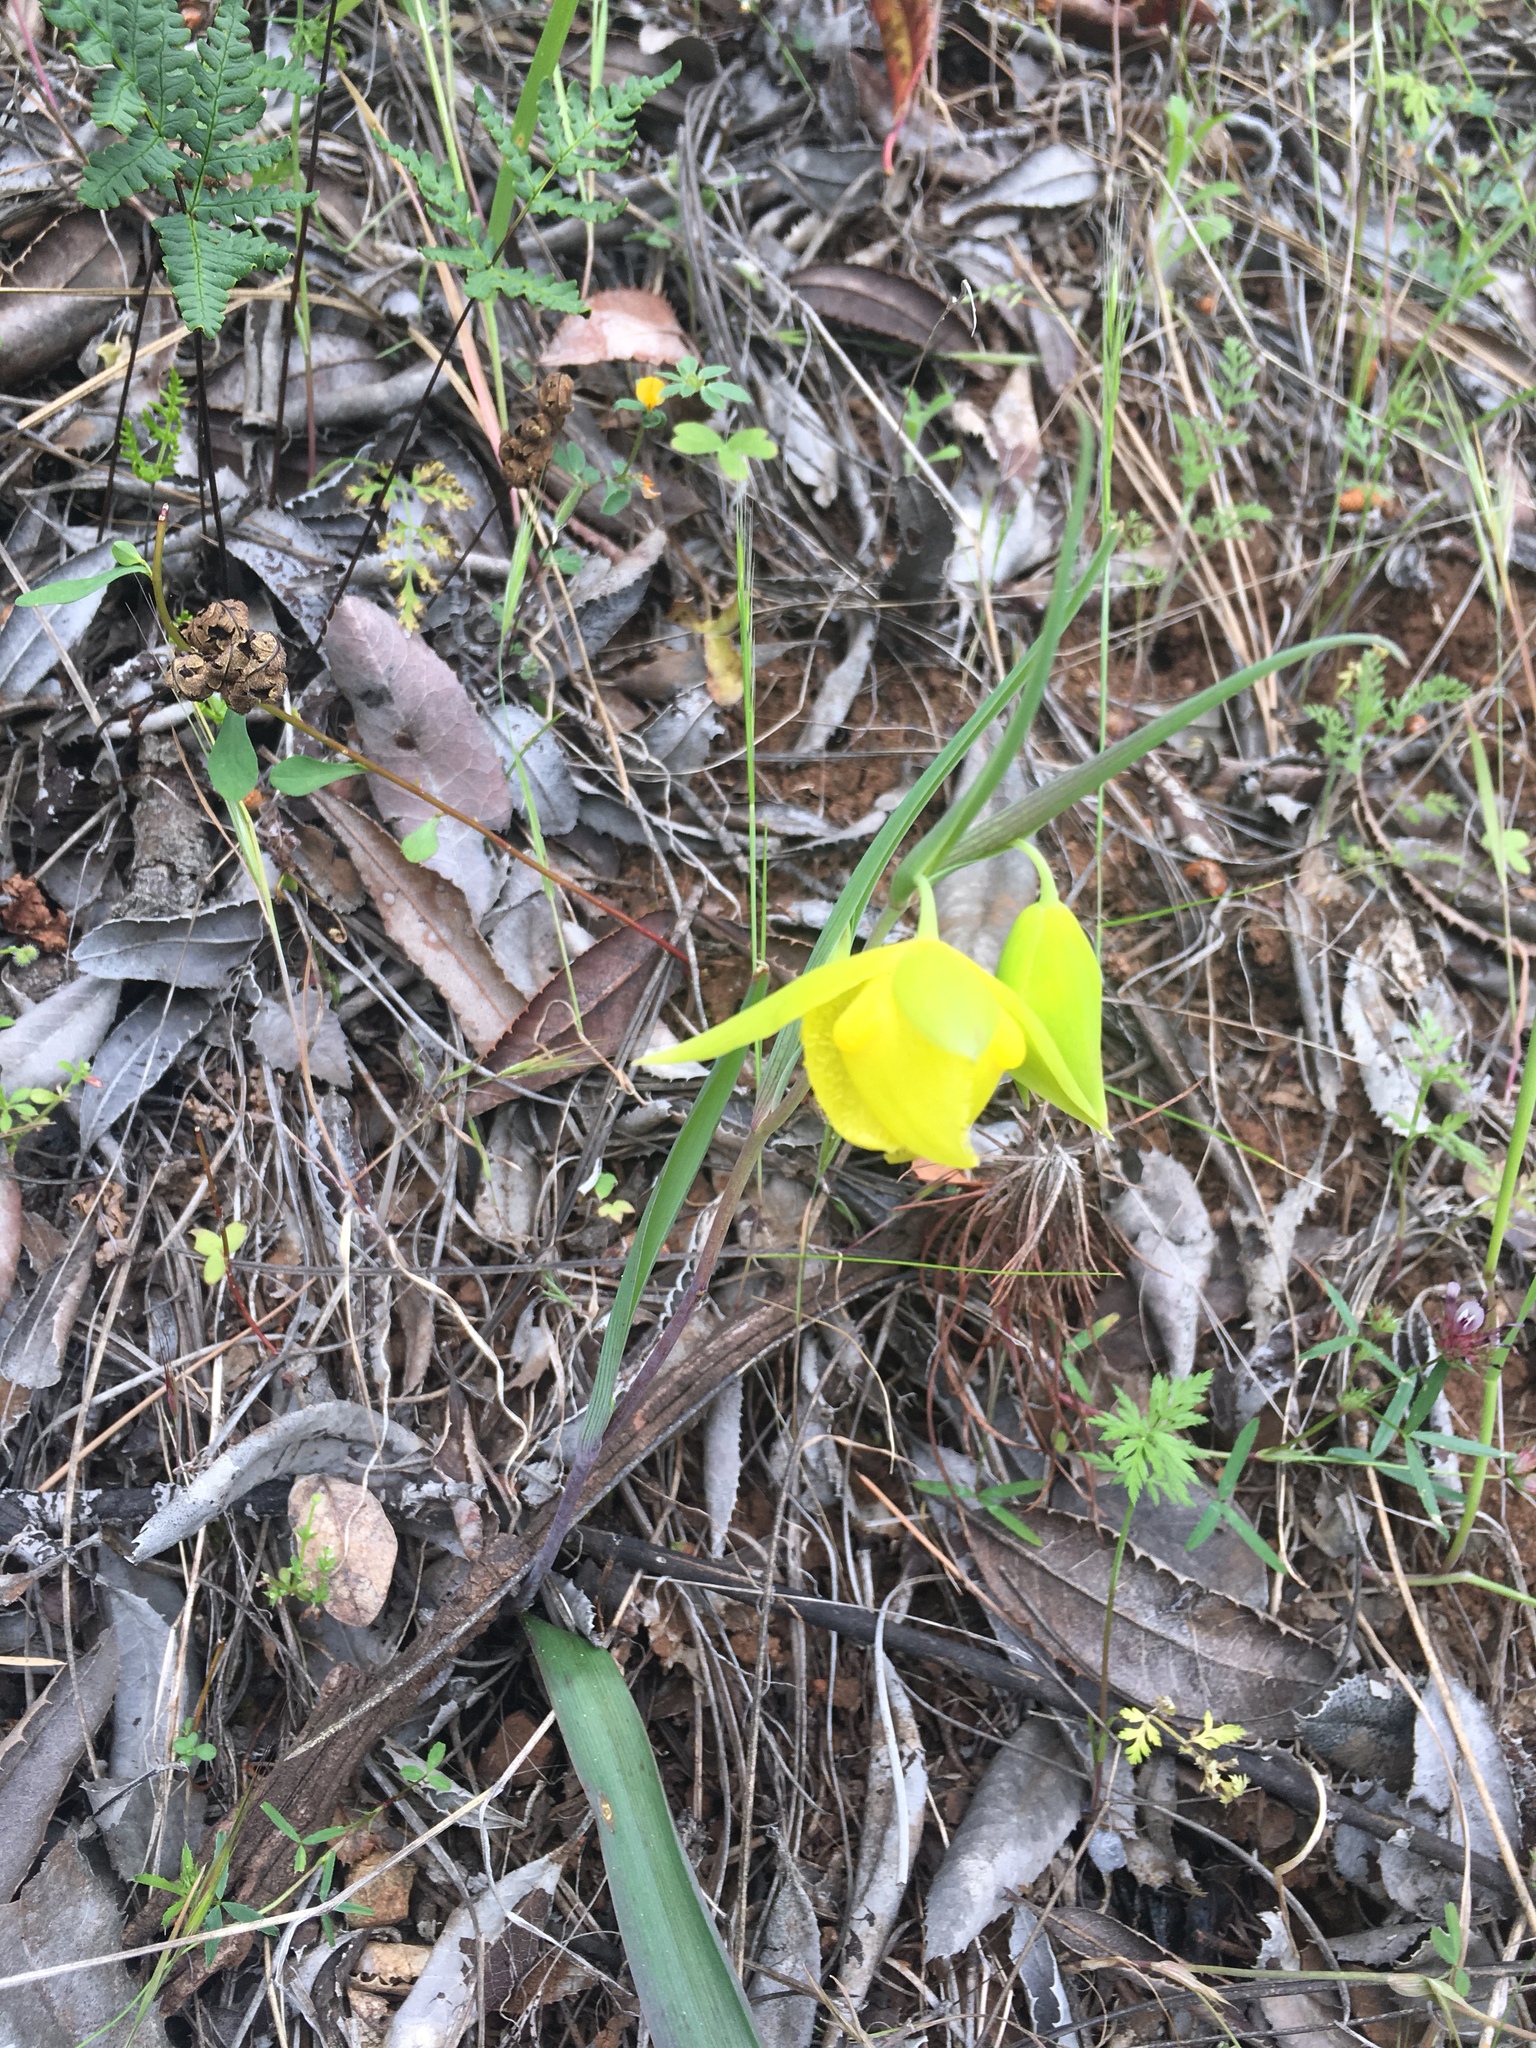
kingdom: Plantae
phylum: Tracheophyta
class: Liliopsida
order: Liliales
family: Liliaceae
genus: Calochortus
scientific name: Calochortus pulchellus
